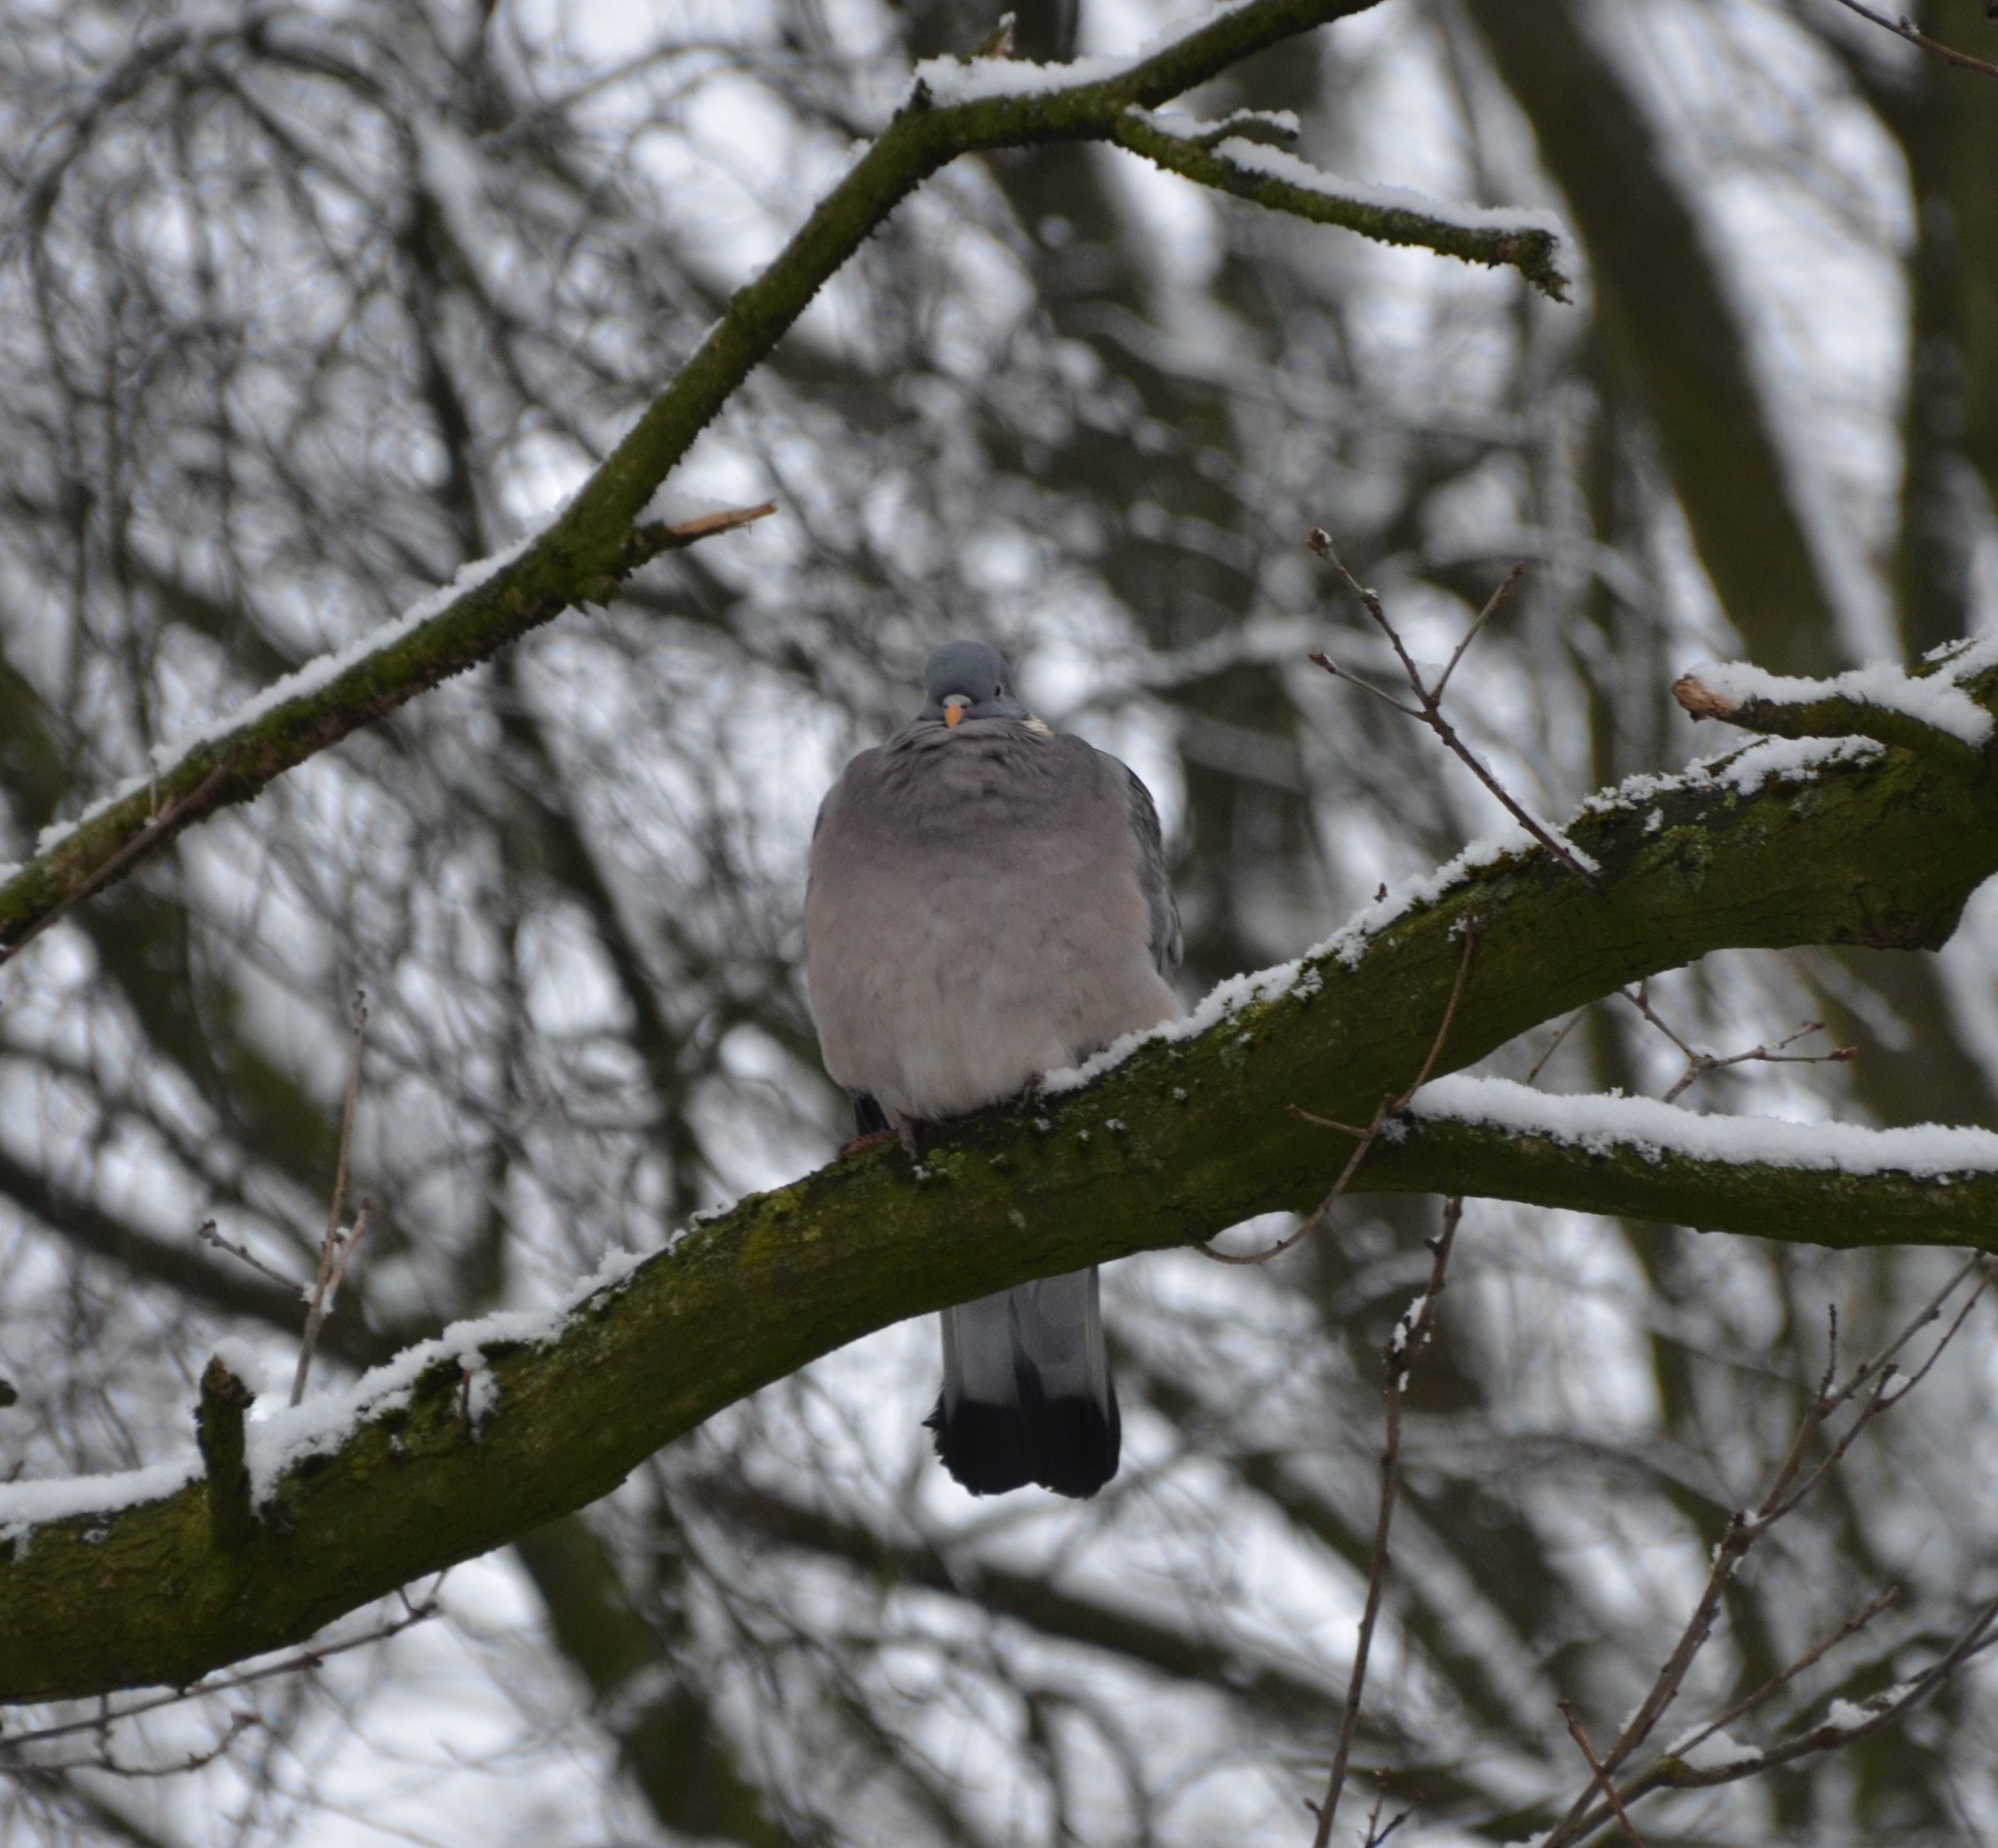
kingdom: Animalia
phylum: Chordata
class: Aves
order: Columbiformes
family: Columbidae
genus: Columba
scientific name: Columba palumbus
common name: Common wood pigeon
